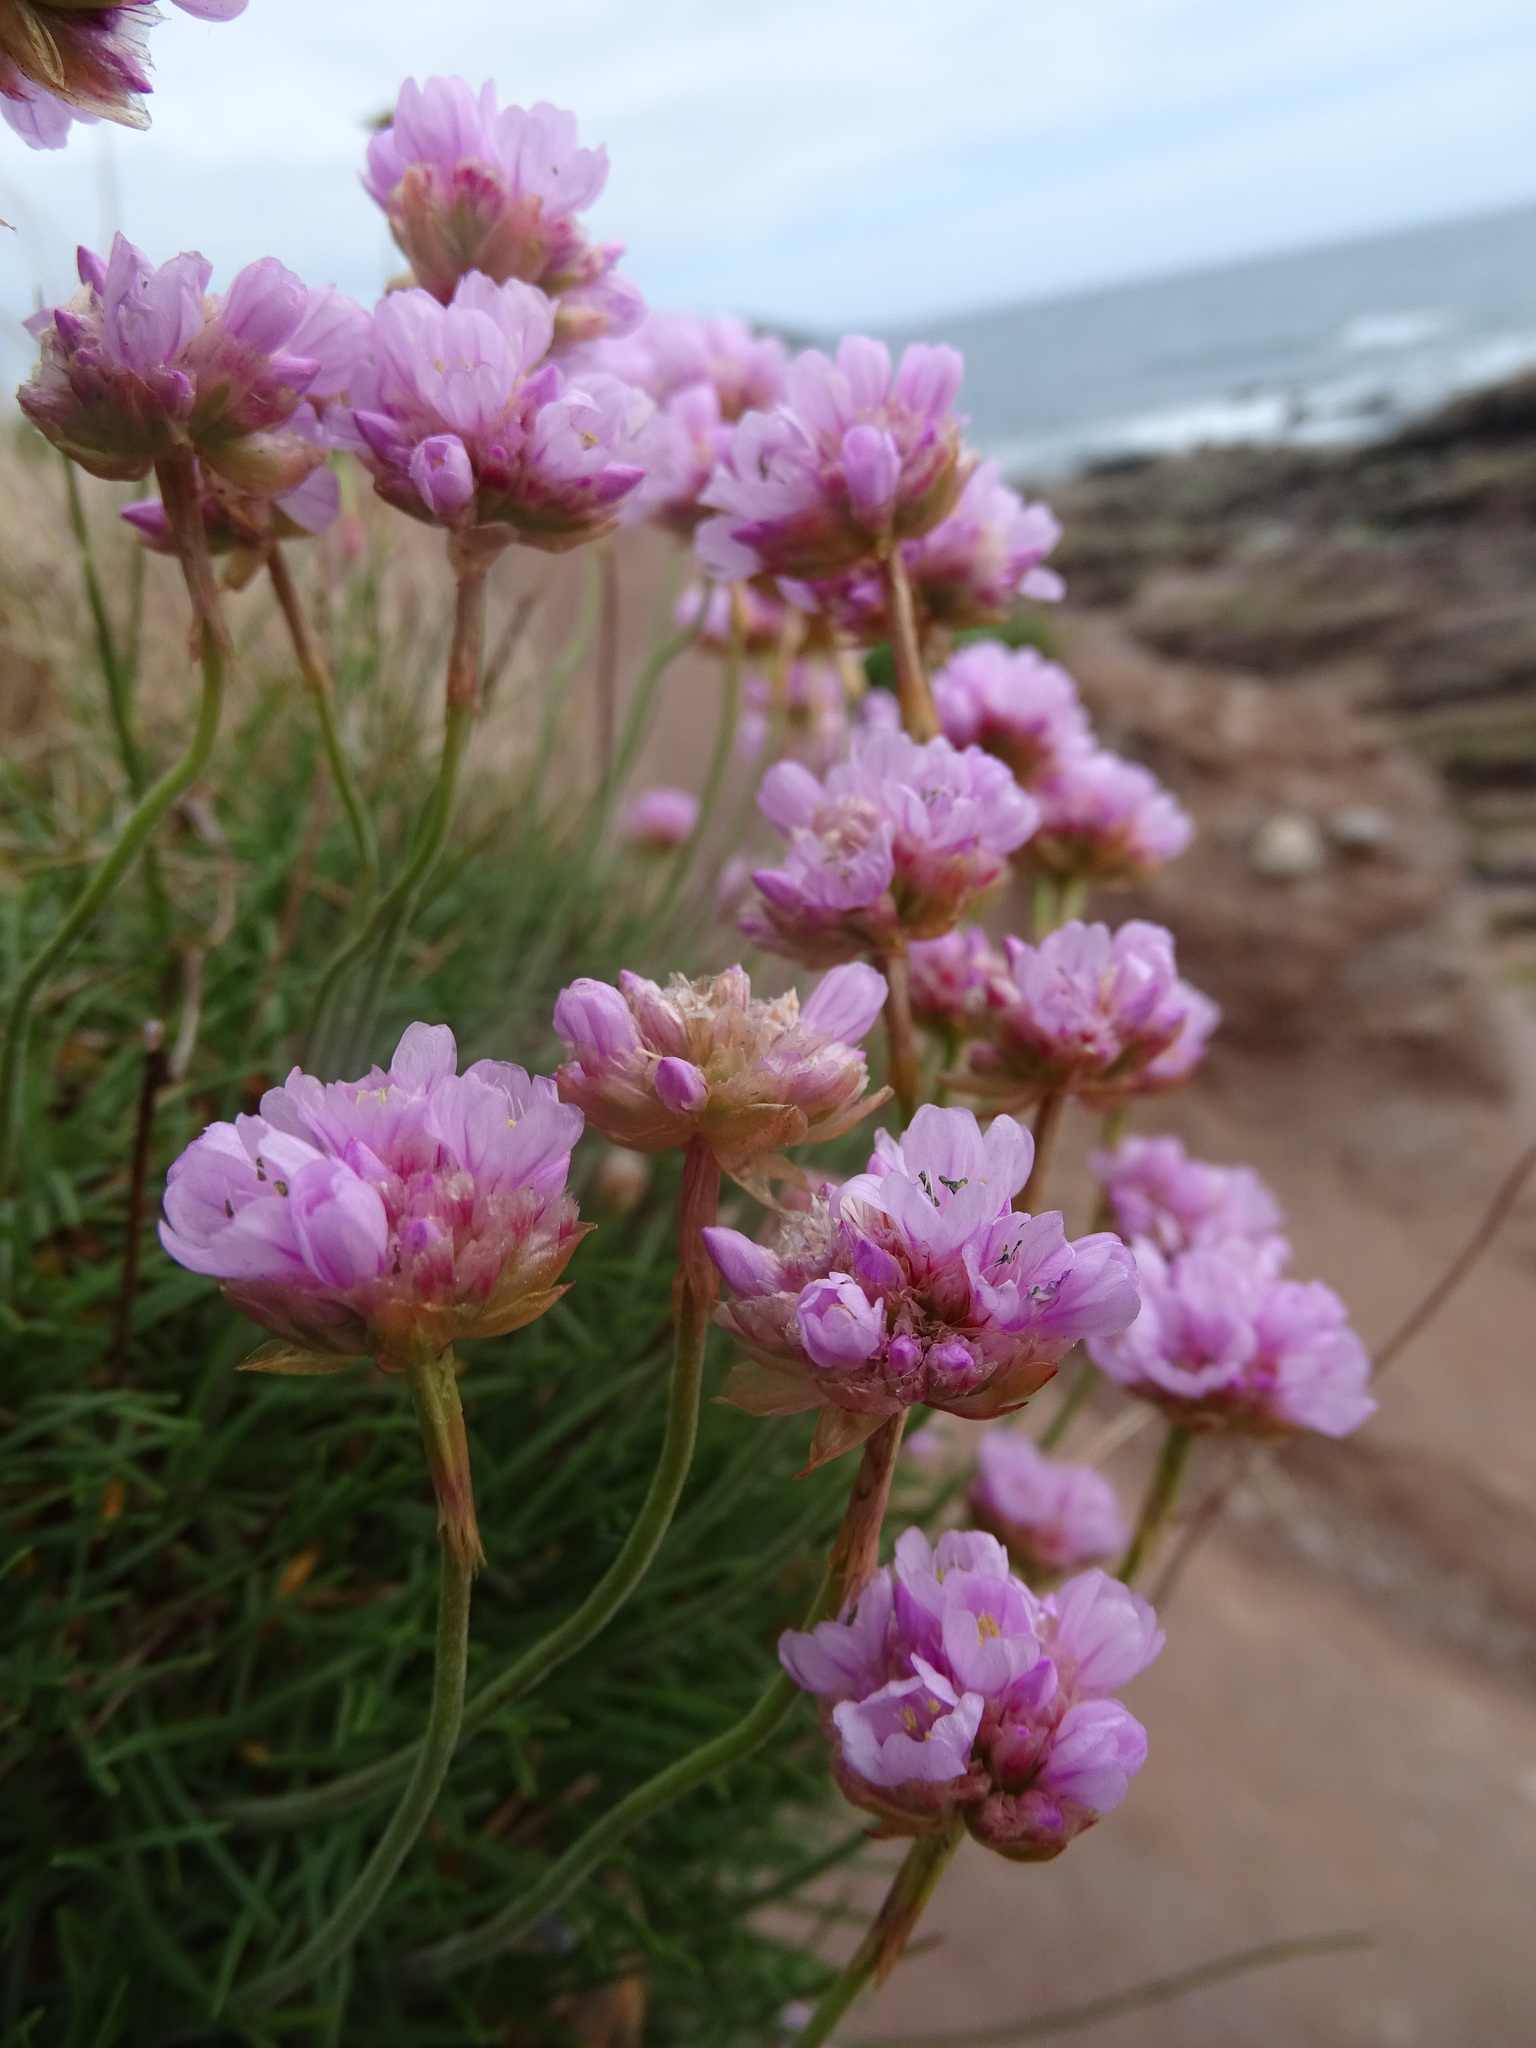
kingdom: Plantae
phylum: Tracheophyta
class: Magnoliopsida
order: Caryophyllales
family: Plumbaginaceae
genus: Armeria
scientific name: Armeria maritima
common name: Thrift
